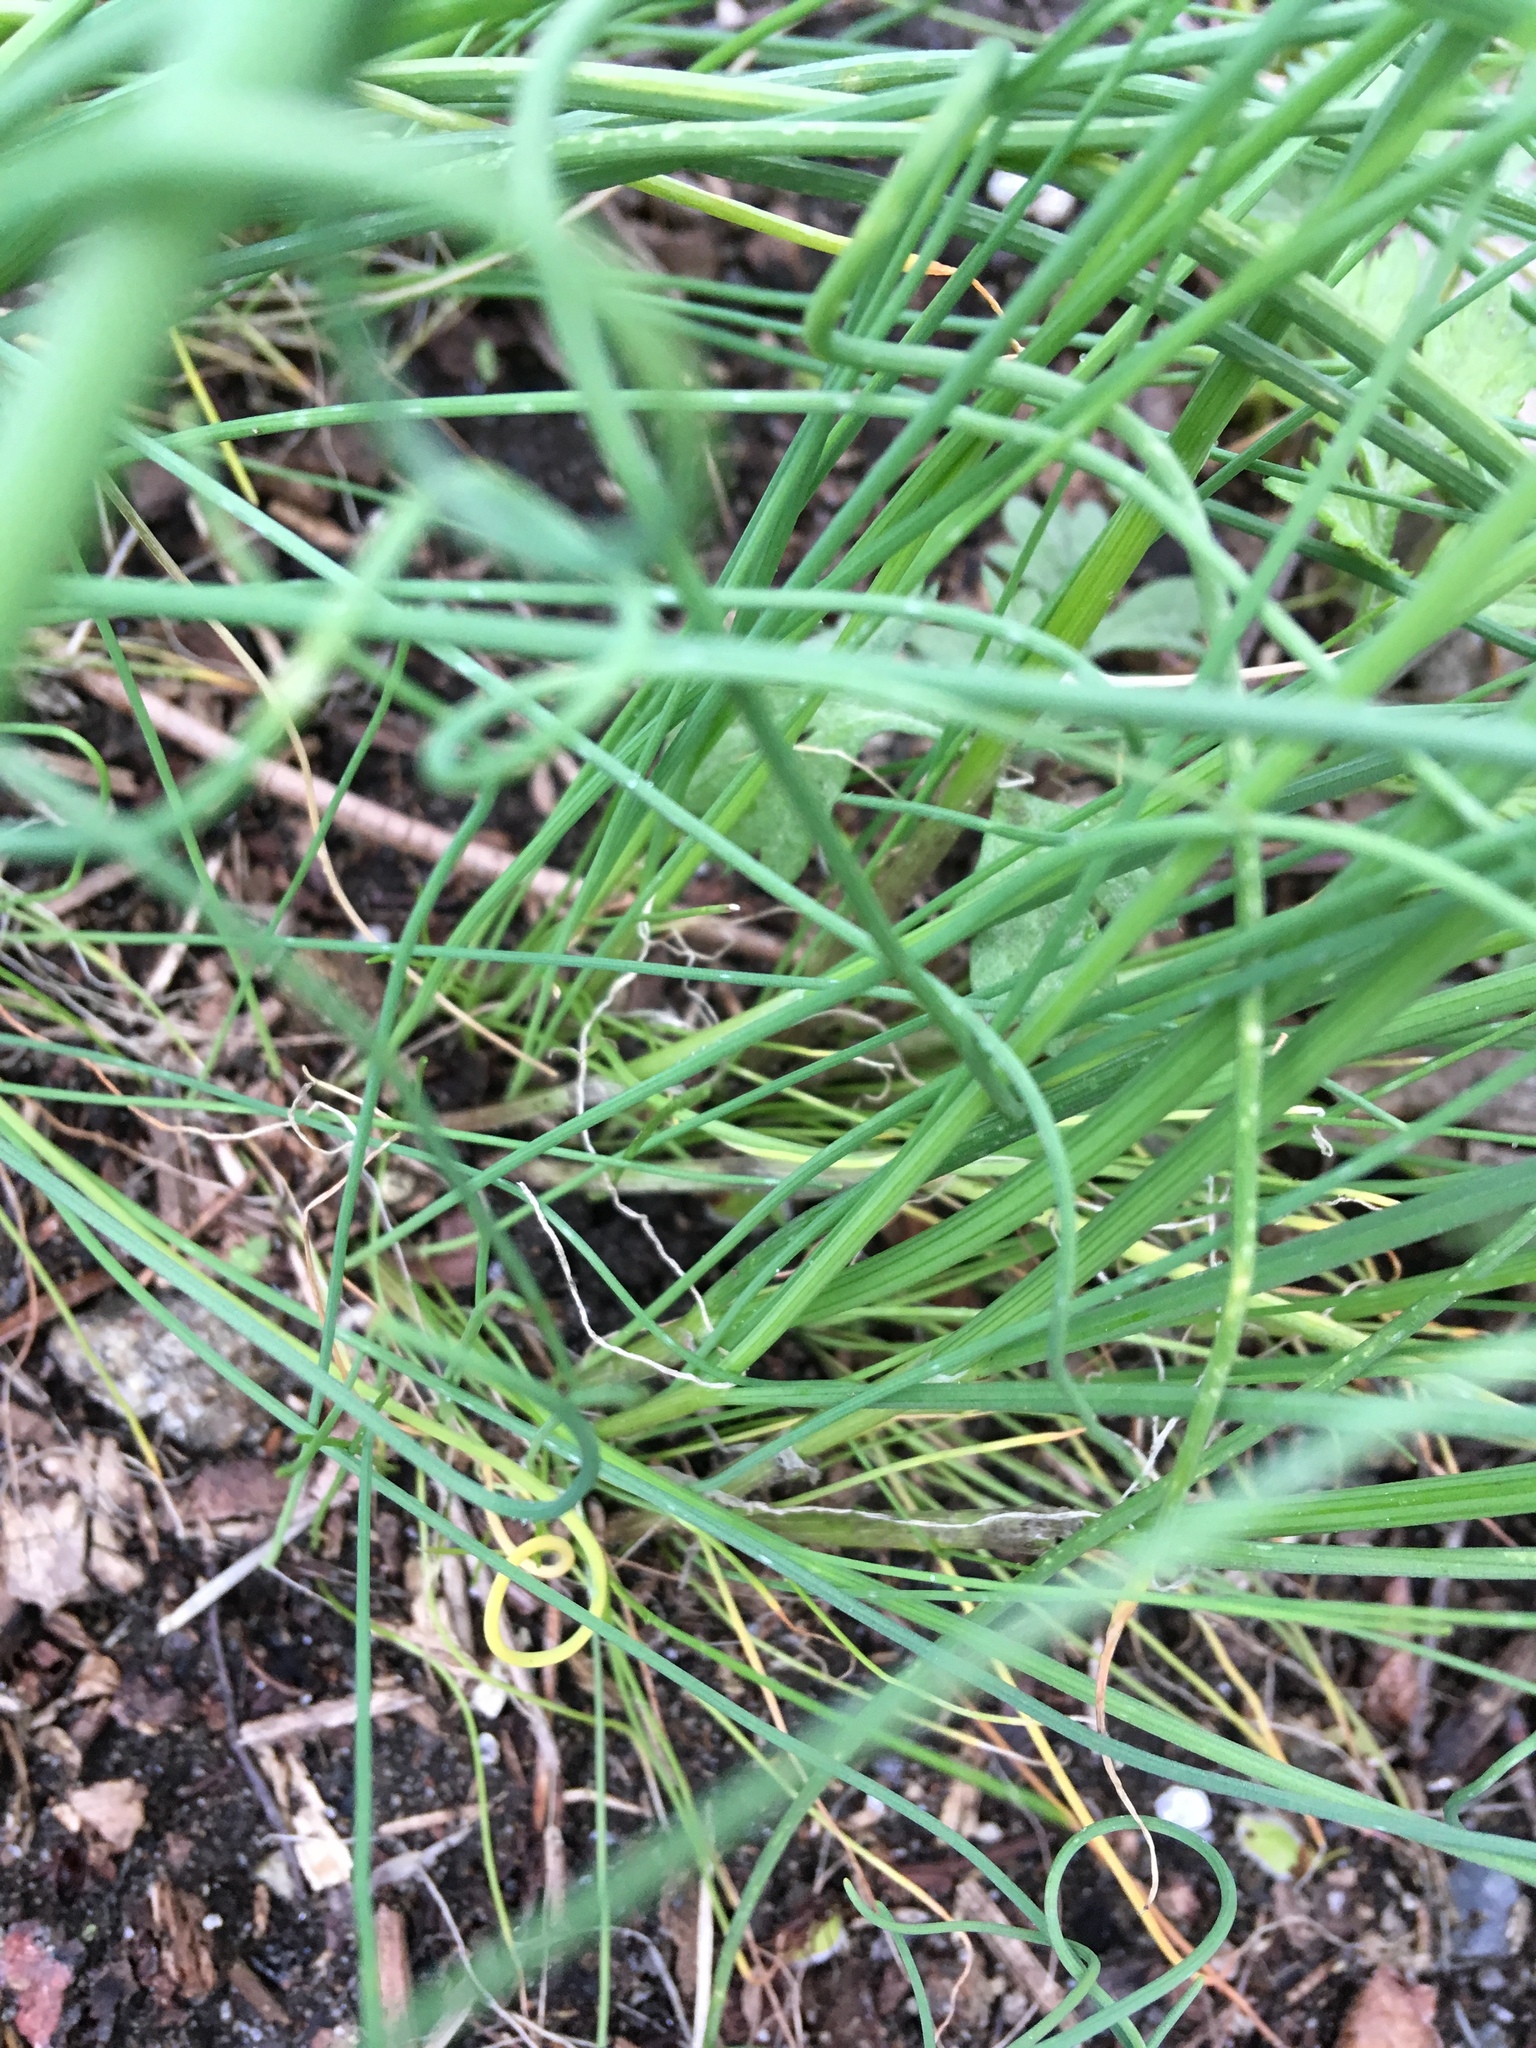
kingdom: Plantae
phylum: Tracheophyta
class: Liliopsida
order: Asparagales
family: Amaryllidaceae
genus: Allium
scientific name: Allium vineale
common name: Crow garlic
